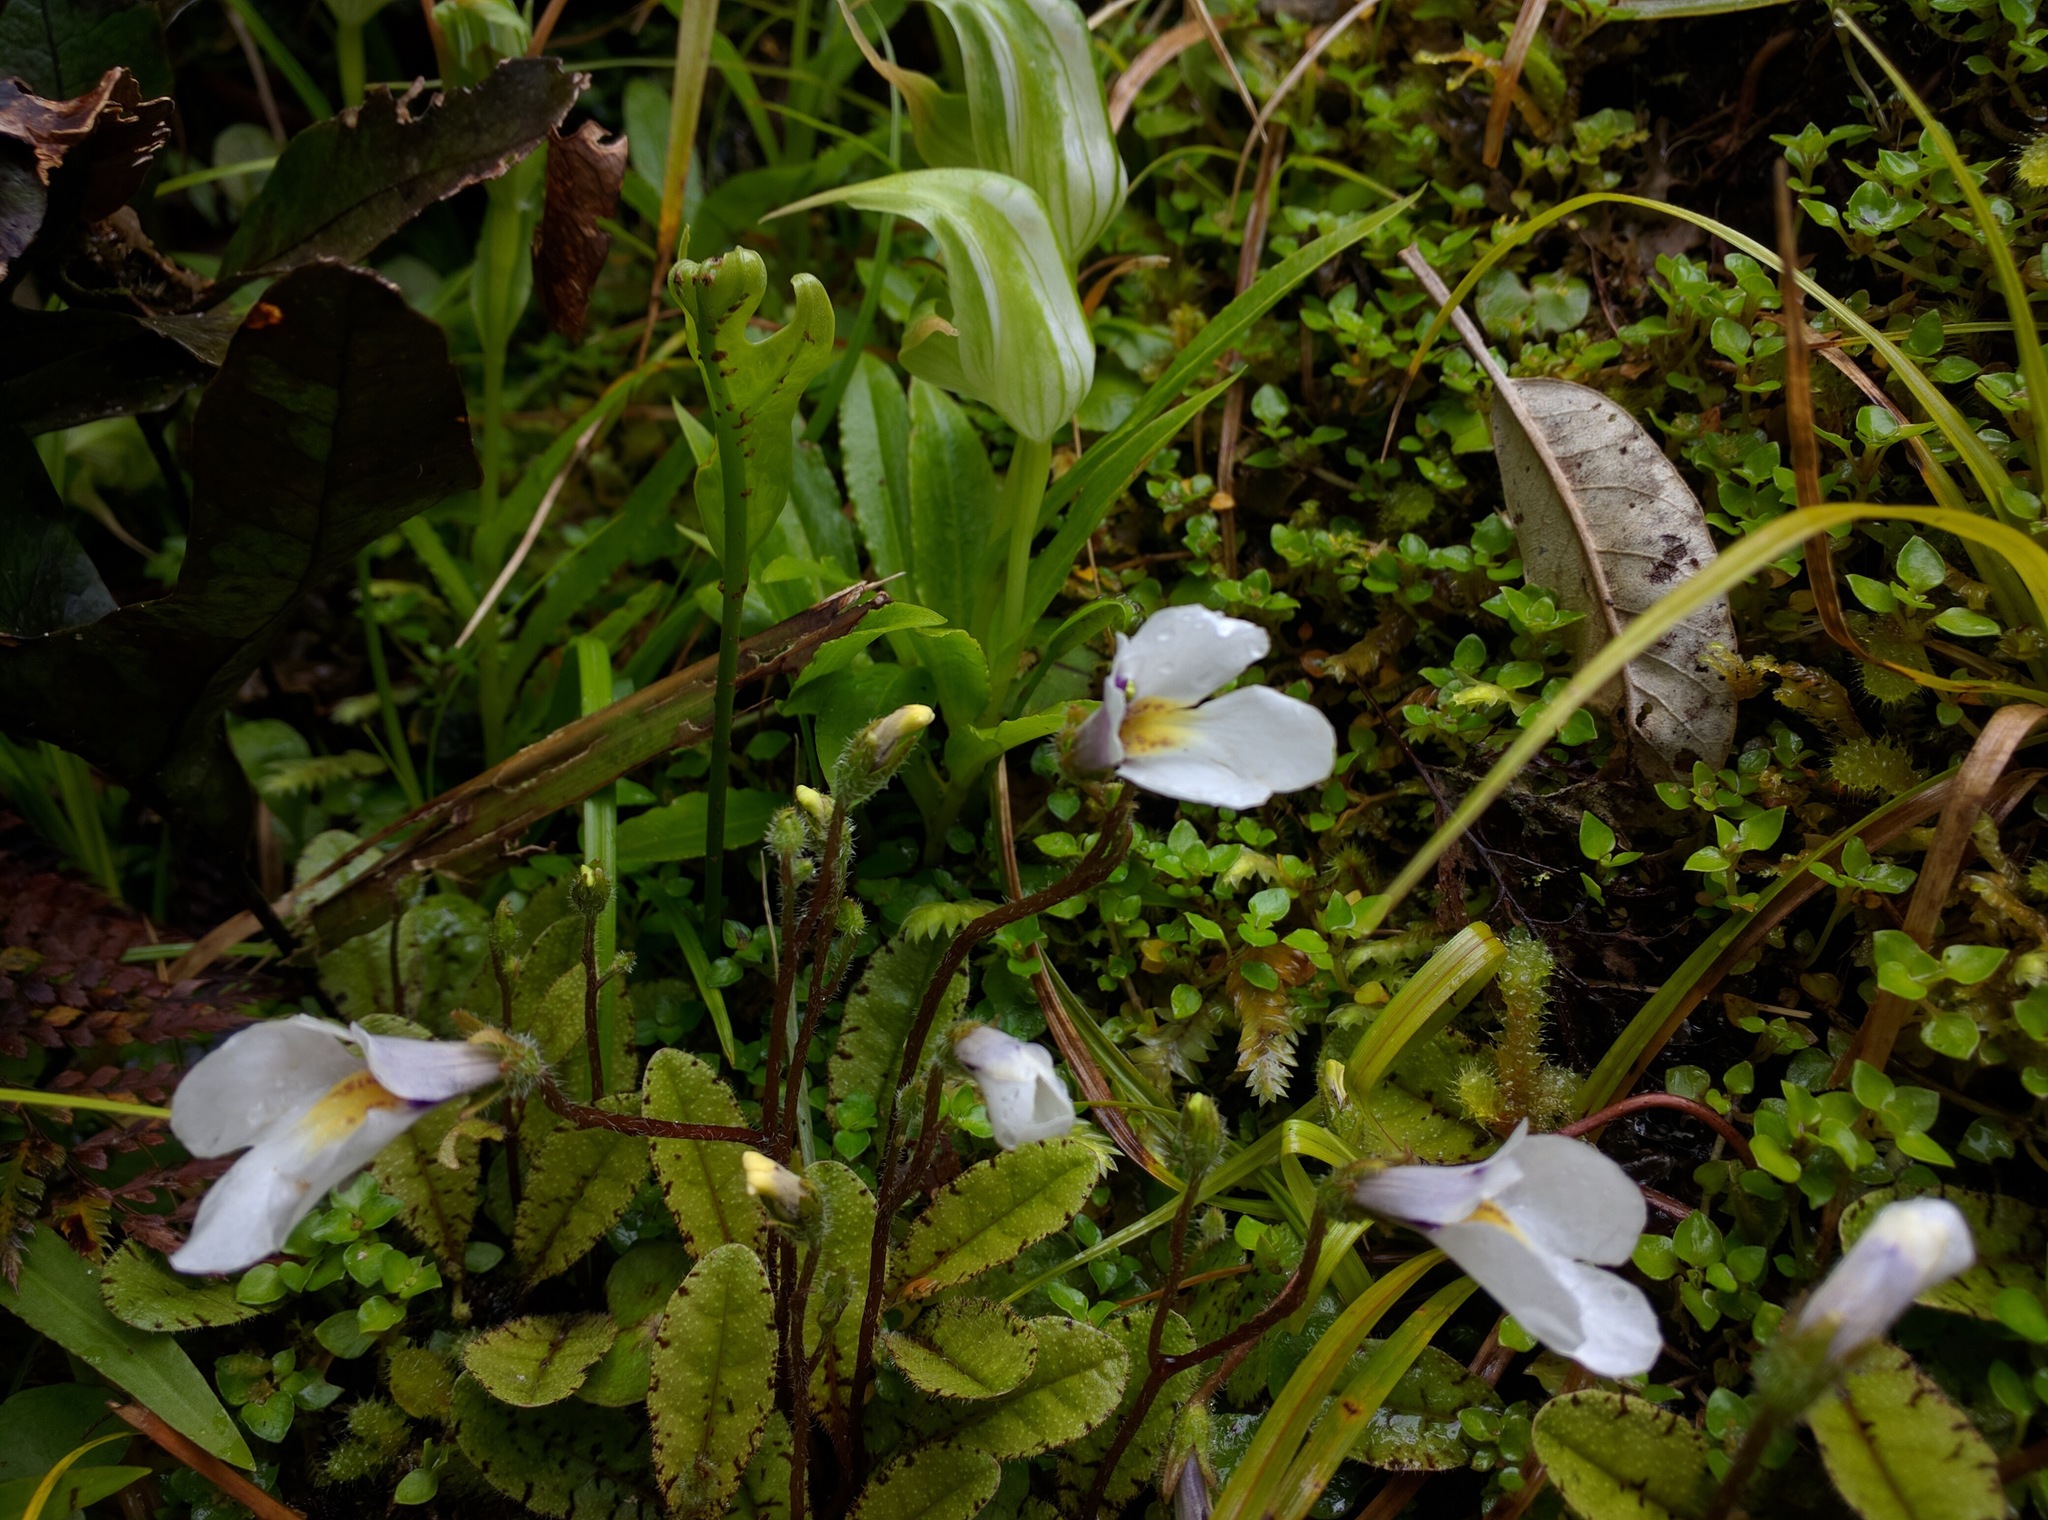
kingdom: Plantae
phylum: Tracheophyta
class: Magnoliopsida
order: Lamiales
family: Mazaceae
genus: Mazus
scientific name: Mazus radicans
